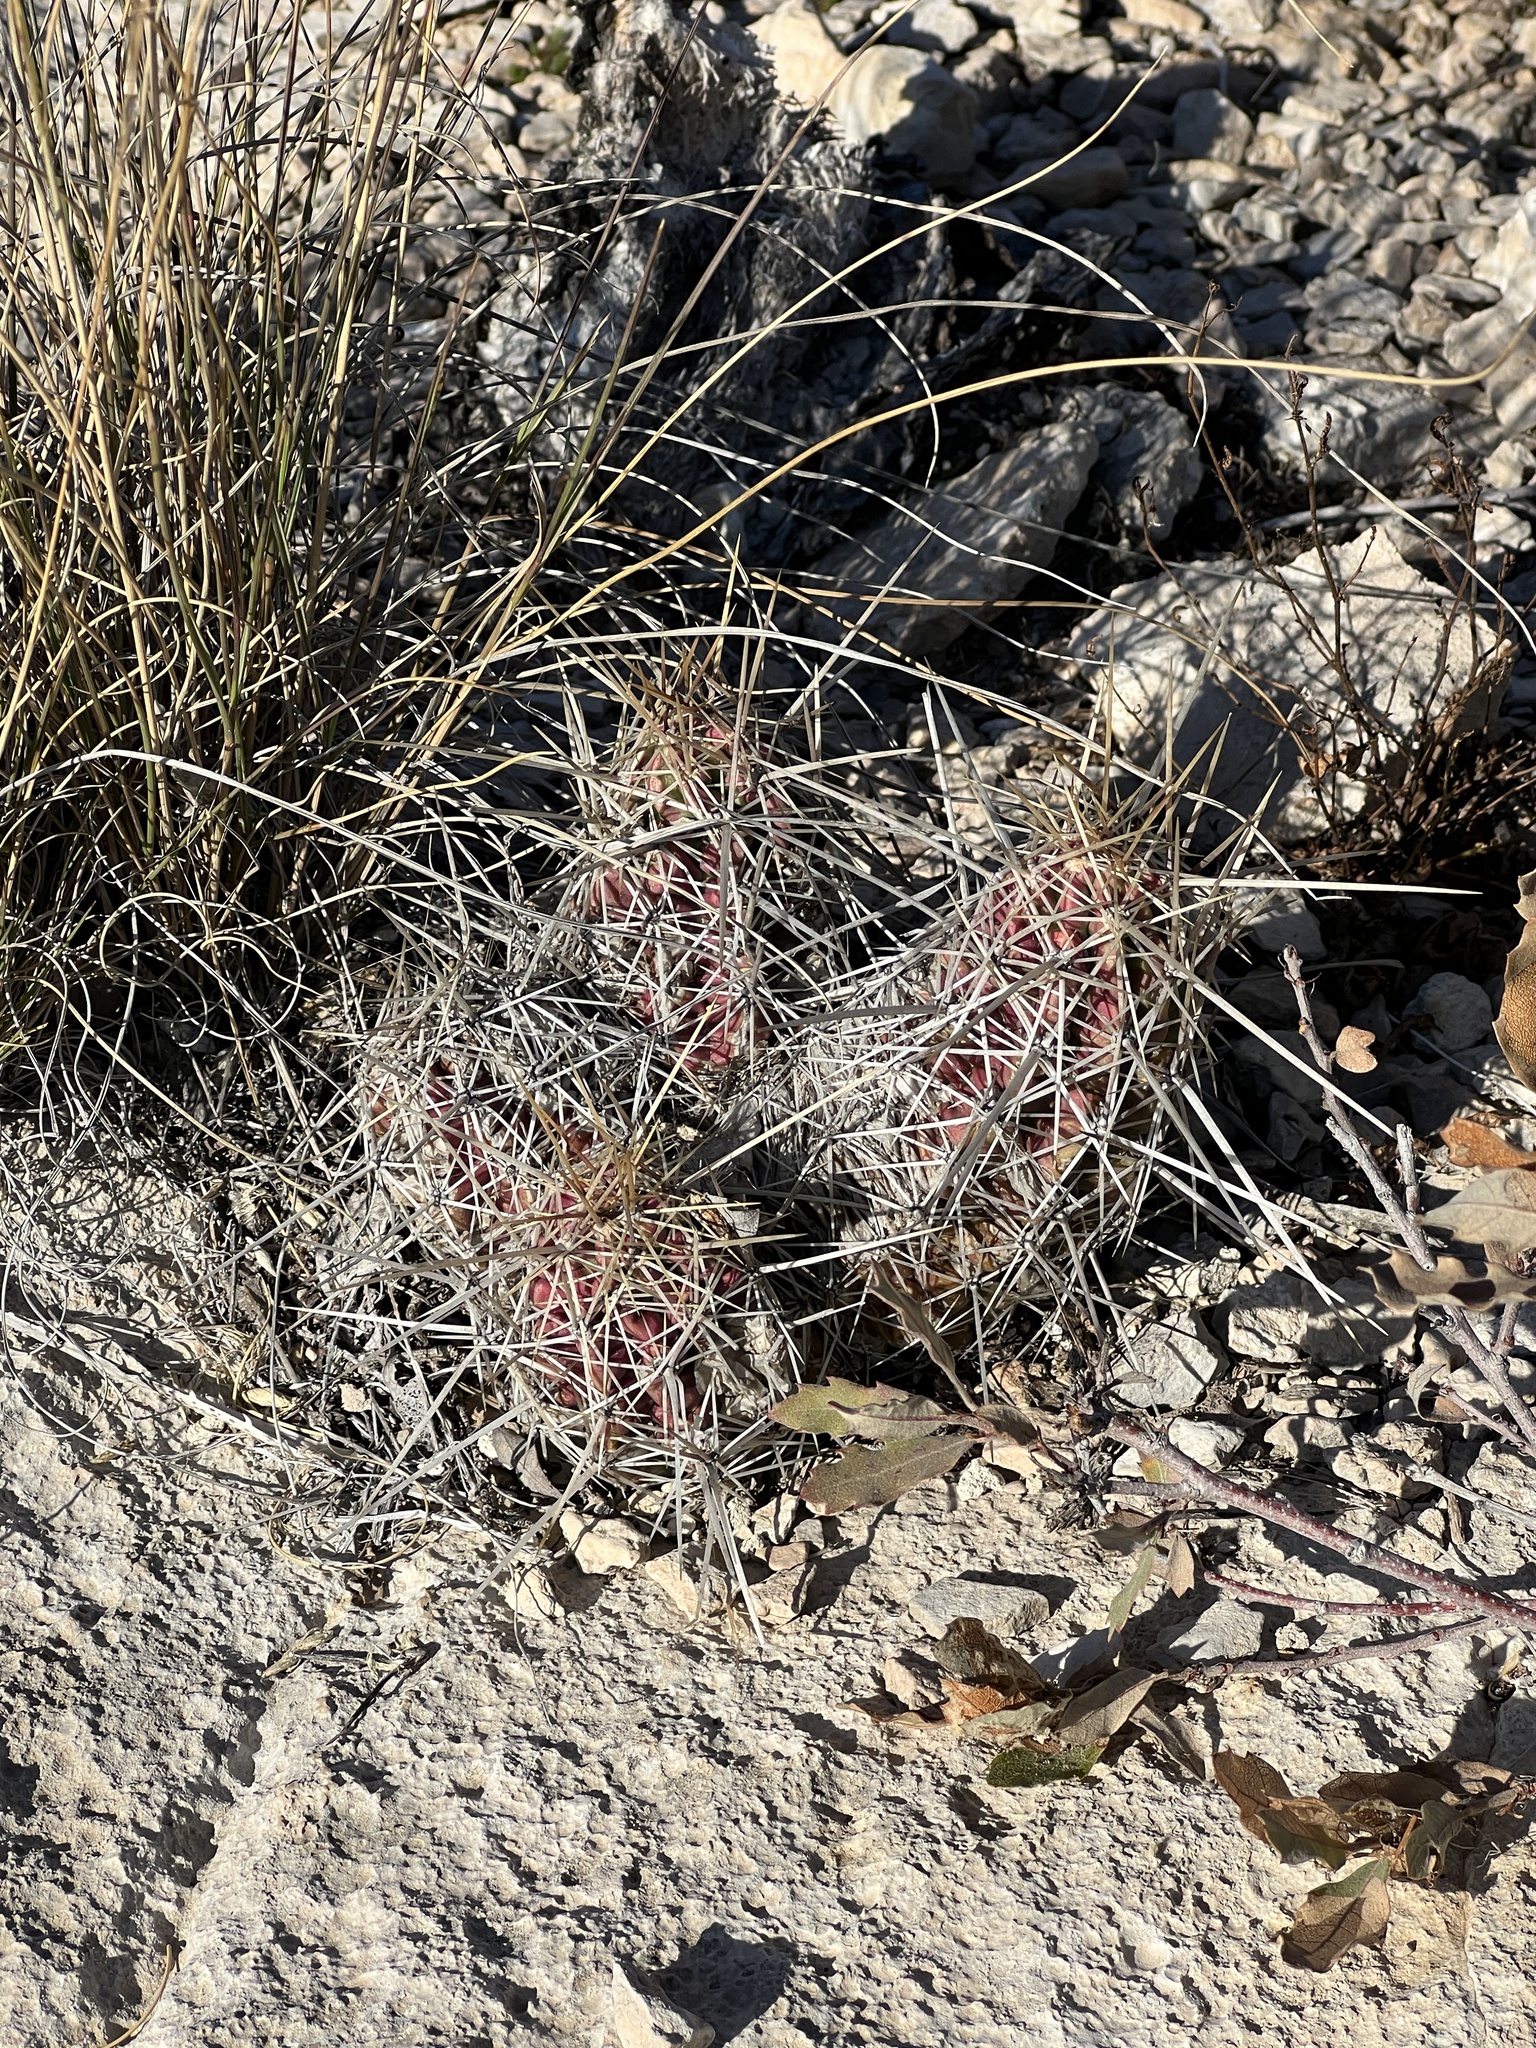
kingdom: Plantae
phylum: Tracheophyta
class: Magnoliopsida
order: Caryophyllales
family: Cactaceae
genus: Echinocereus
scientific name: Echinocereus enneacanthus
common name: Pitaya
